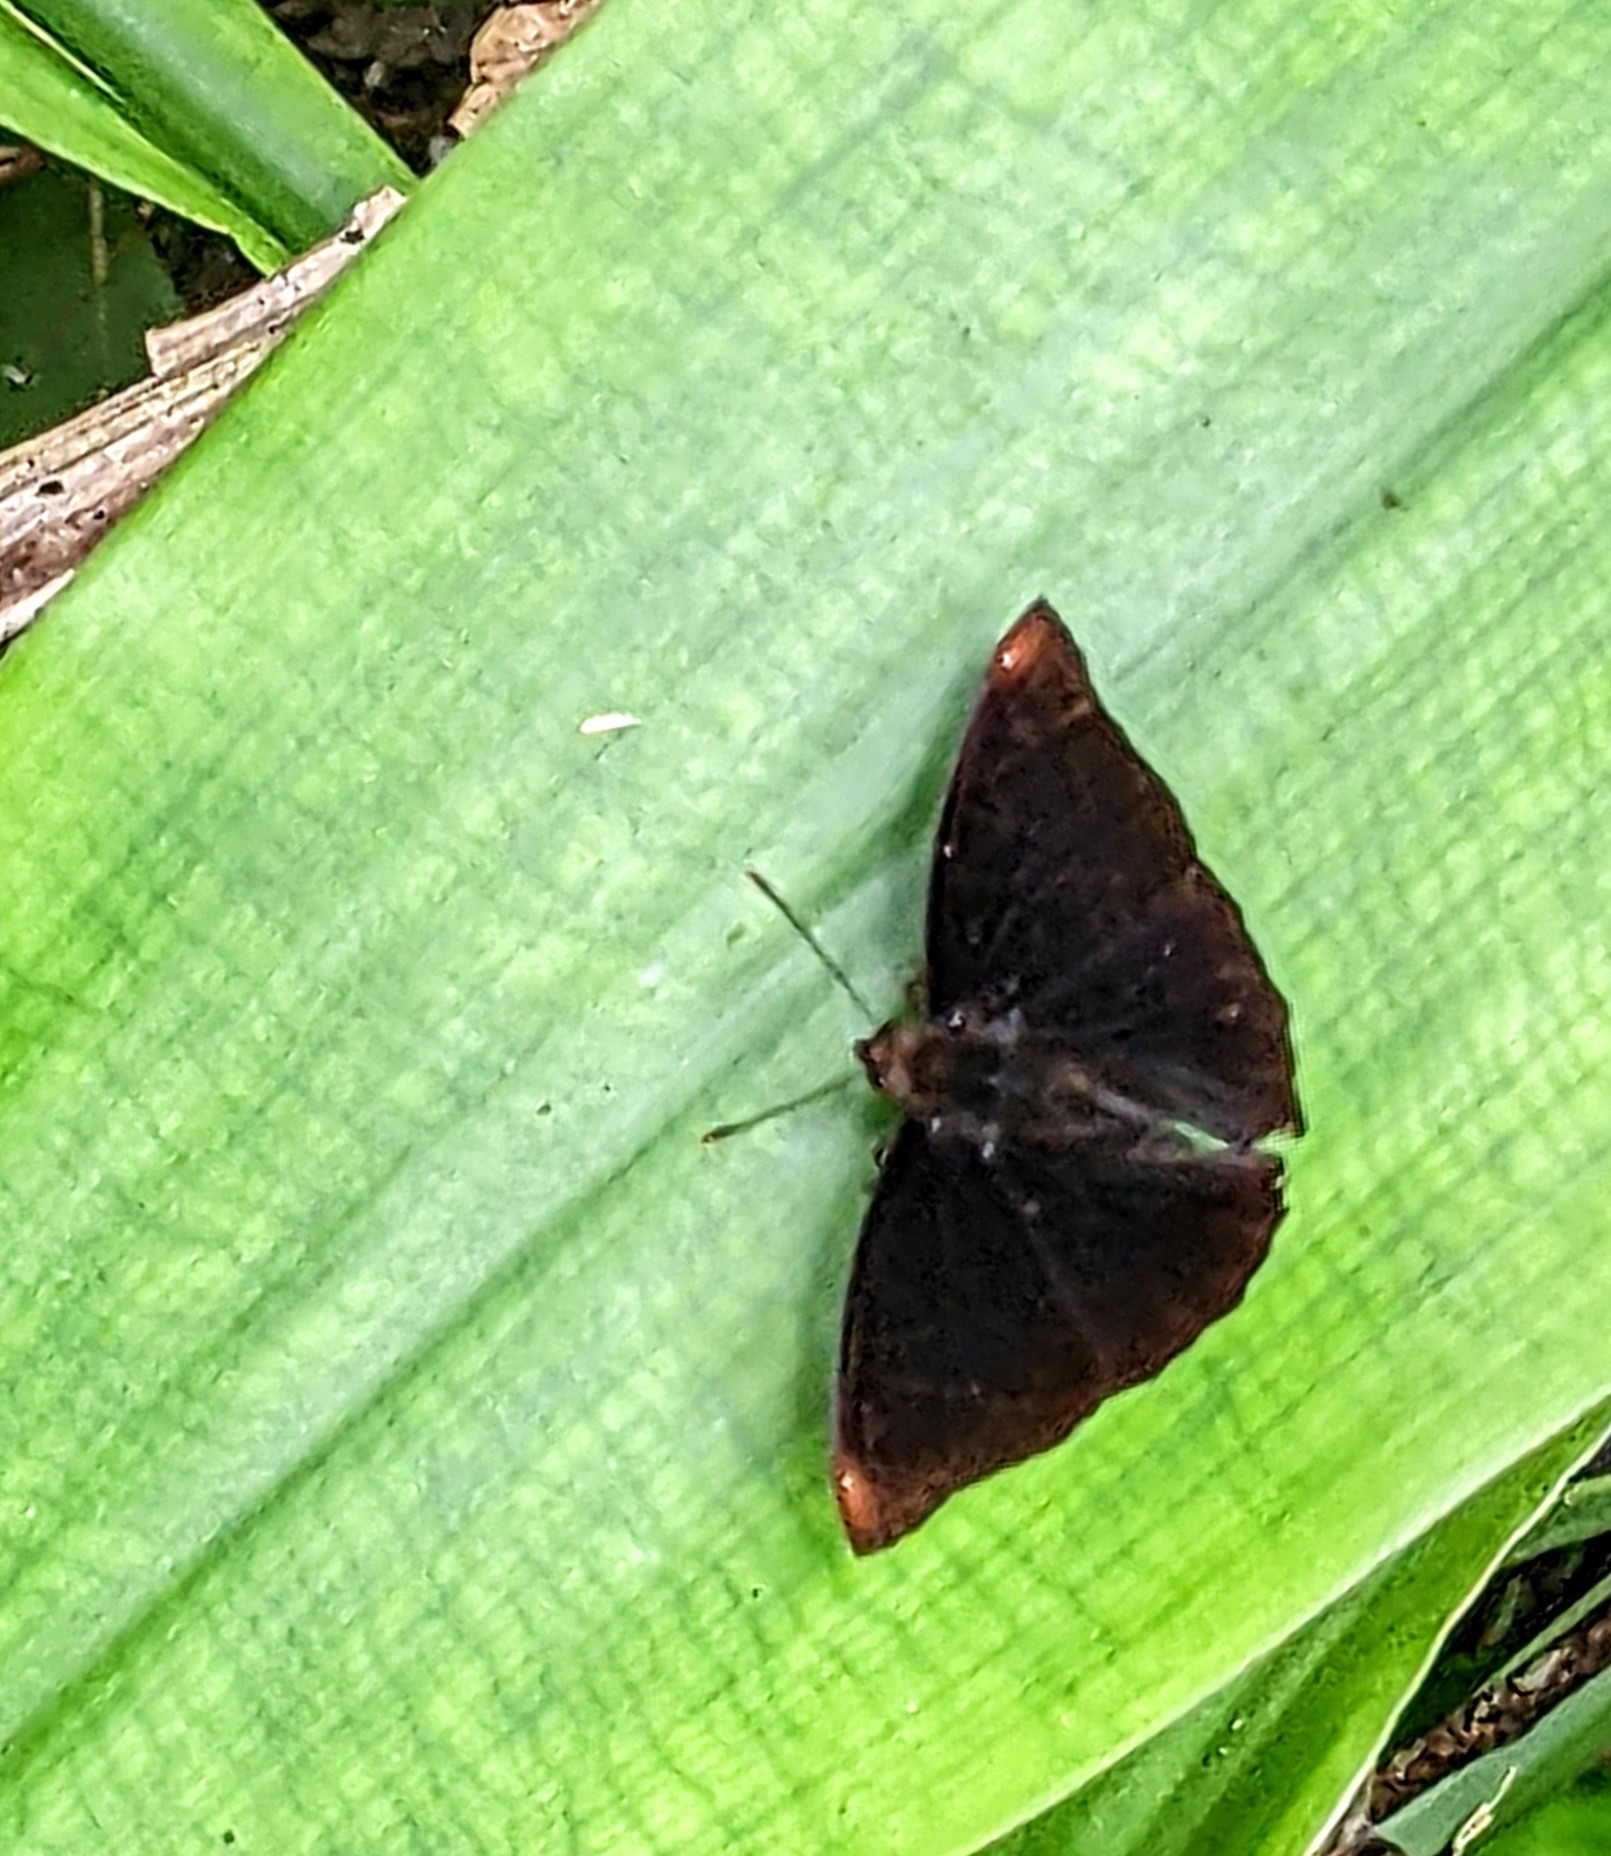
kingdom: Animalia
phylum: Arthropoda
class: Insecta
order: Lepidoptera
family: Nymphalidae
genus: Apatura
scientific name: Apatura Rohana spec
